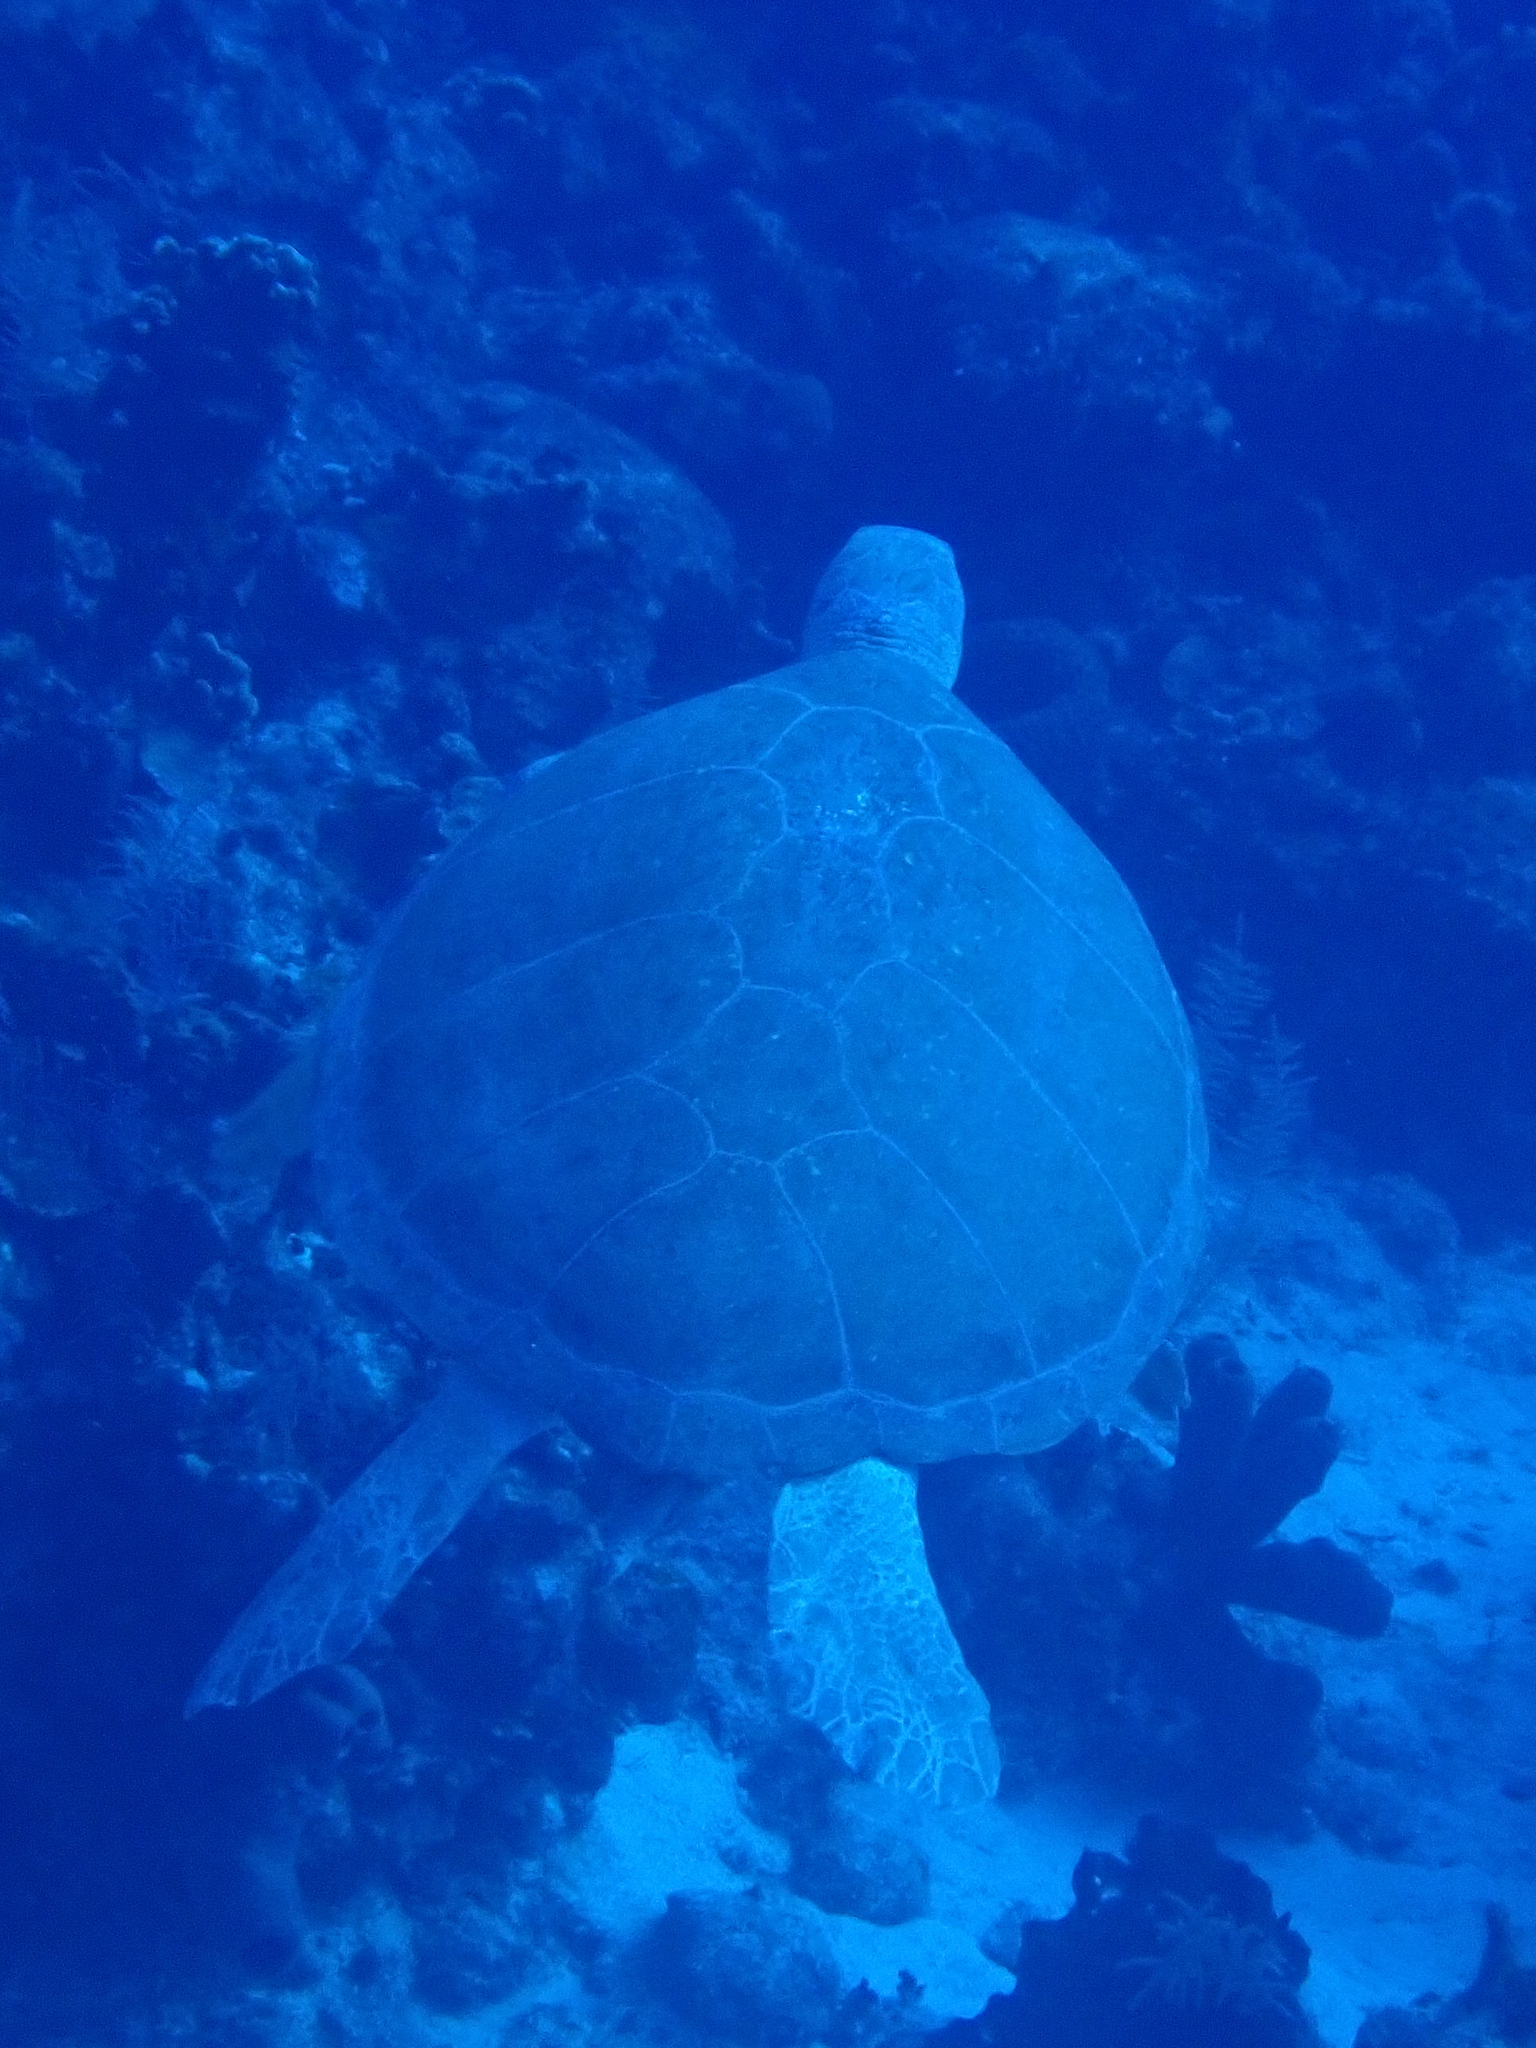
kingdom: Animalia
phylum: Chordata
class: Testudines
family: Cheloniidae
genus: Chelonia
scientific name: Chelonia mydas
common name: Green turtle
